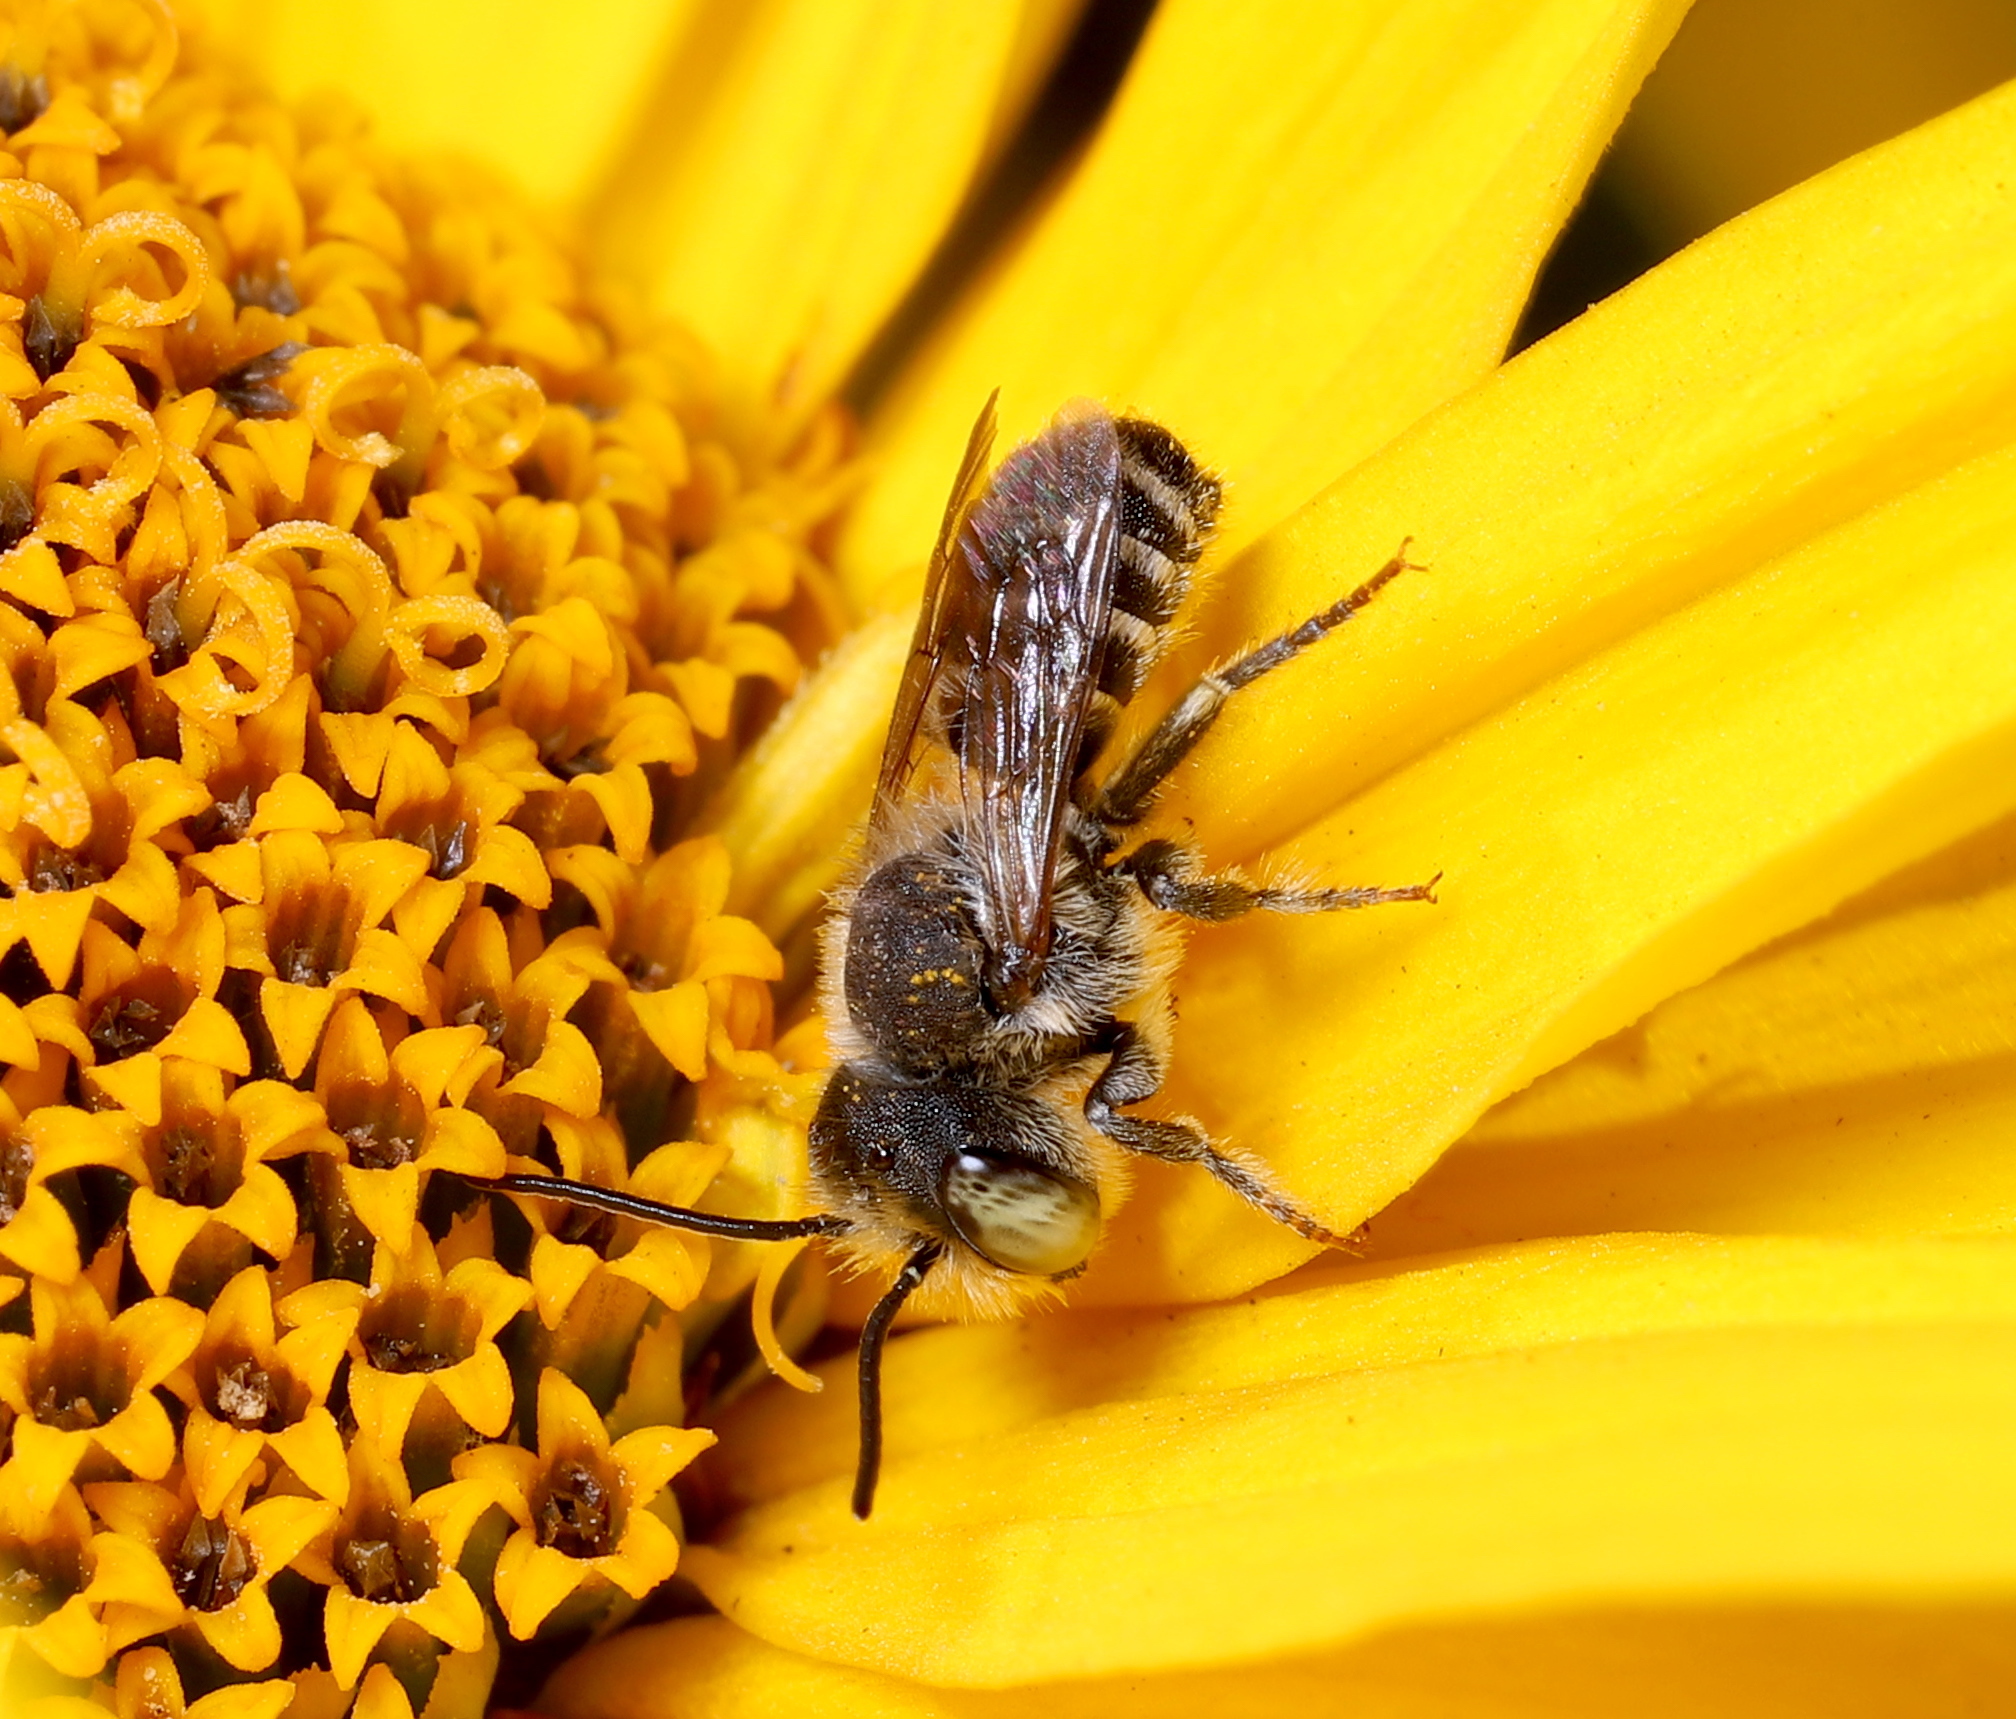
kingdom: Animalia
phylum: Arthropoda
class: Insecta
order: Hymenoptera
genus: Eutricharaea
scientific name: Eutricharaea
